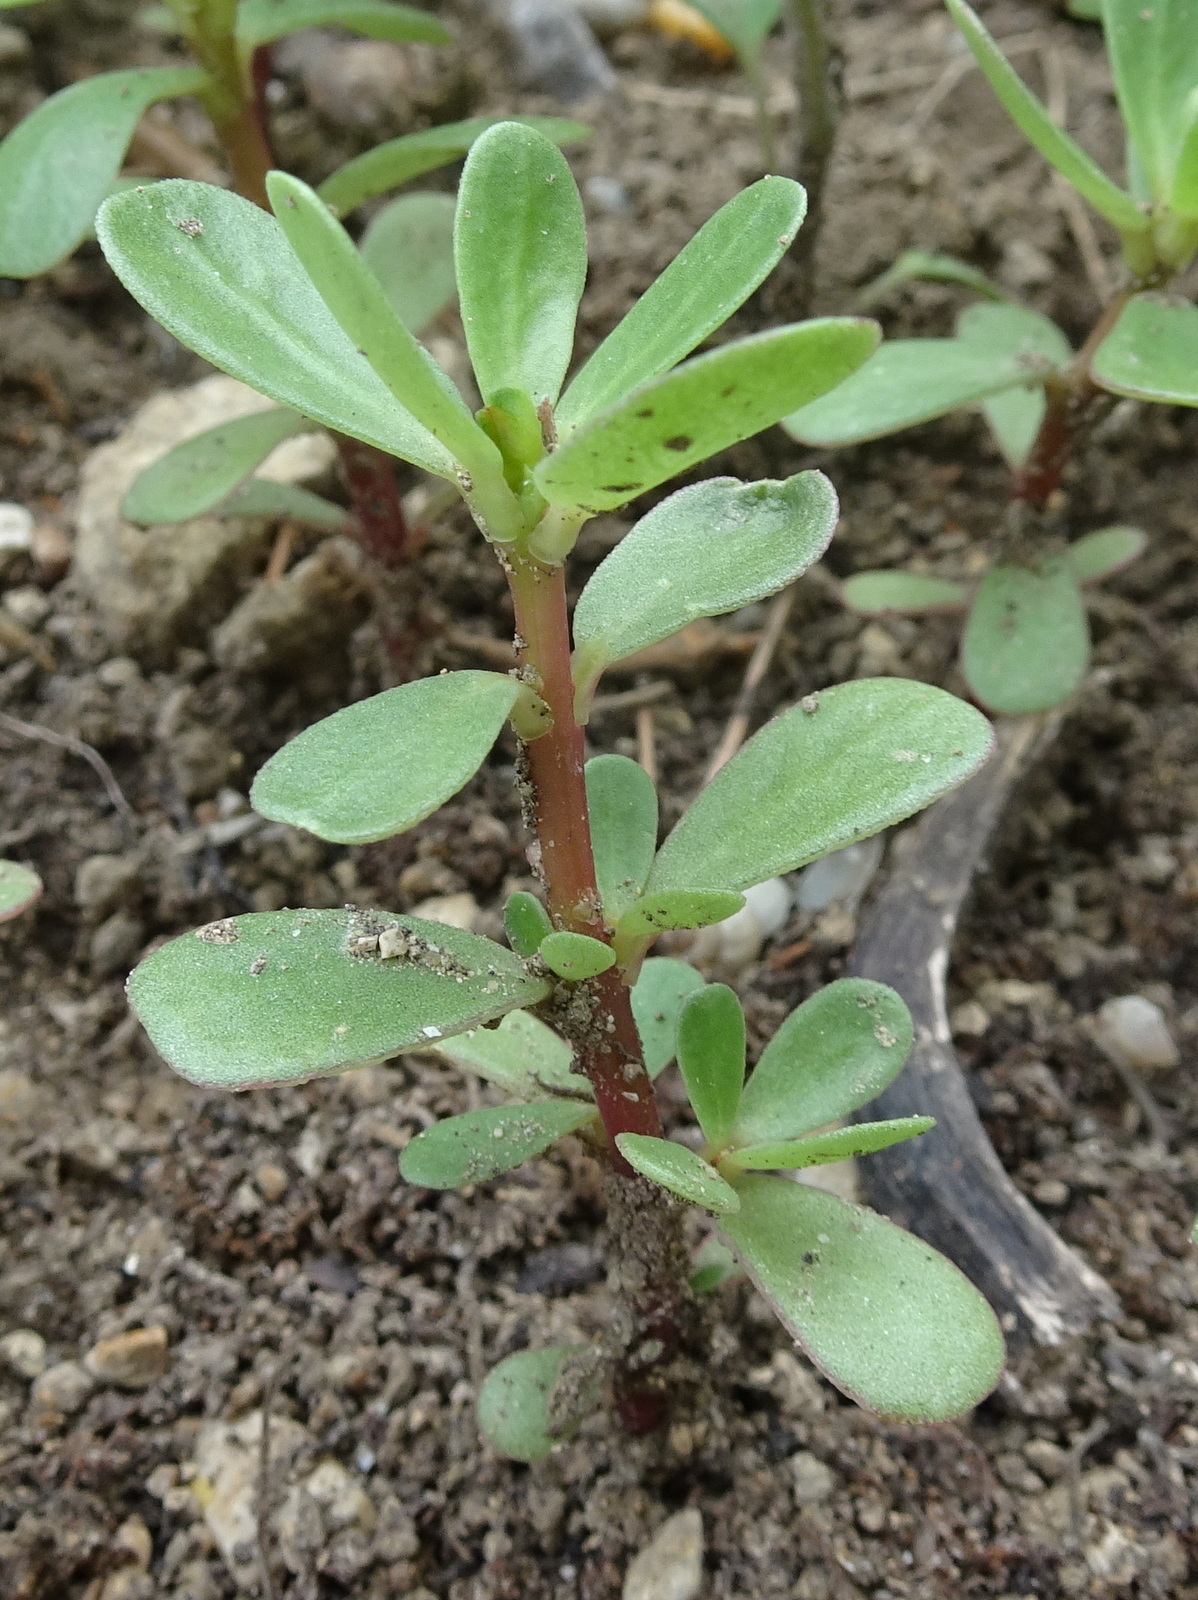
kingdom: Plantae
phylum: Tracheophyta
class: Magnoliopsida
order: Caryophyllales
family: Portulacaceae
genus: Portulaca
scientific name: Portulaca oleracea
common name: Common purslane
